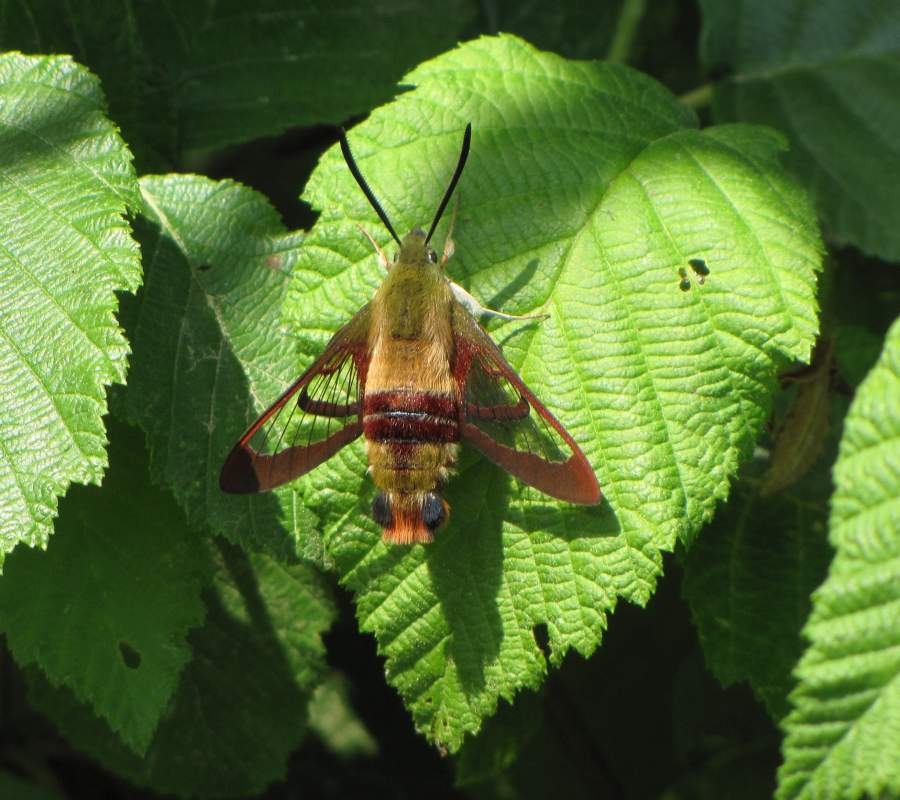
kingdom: Animalia
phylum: Arthropoda
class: Insecta
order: Lepidoptera
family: Sphingidae
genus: Hemaris
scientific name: Hemaris thysbe
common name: Common clear-wing
